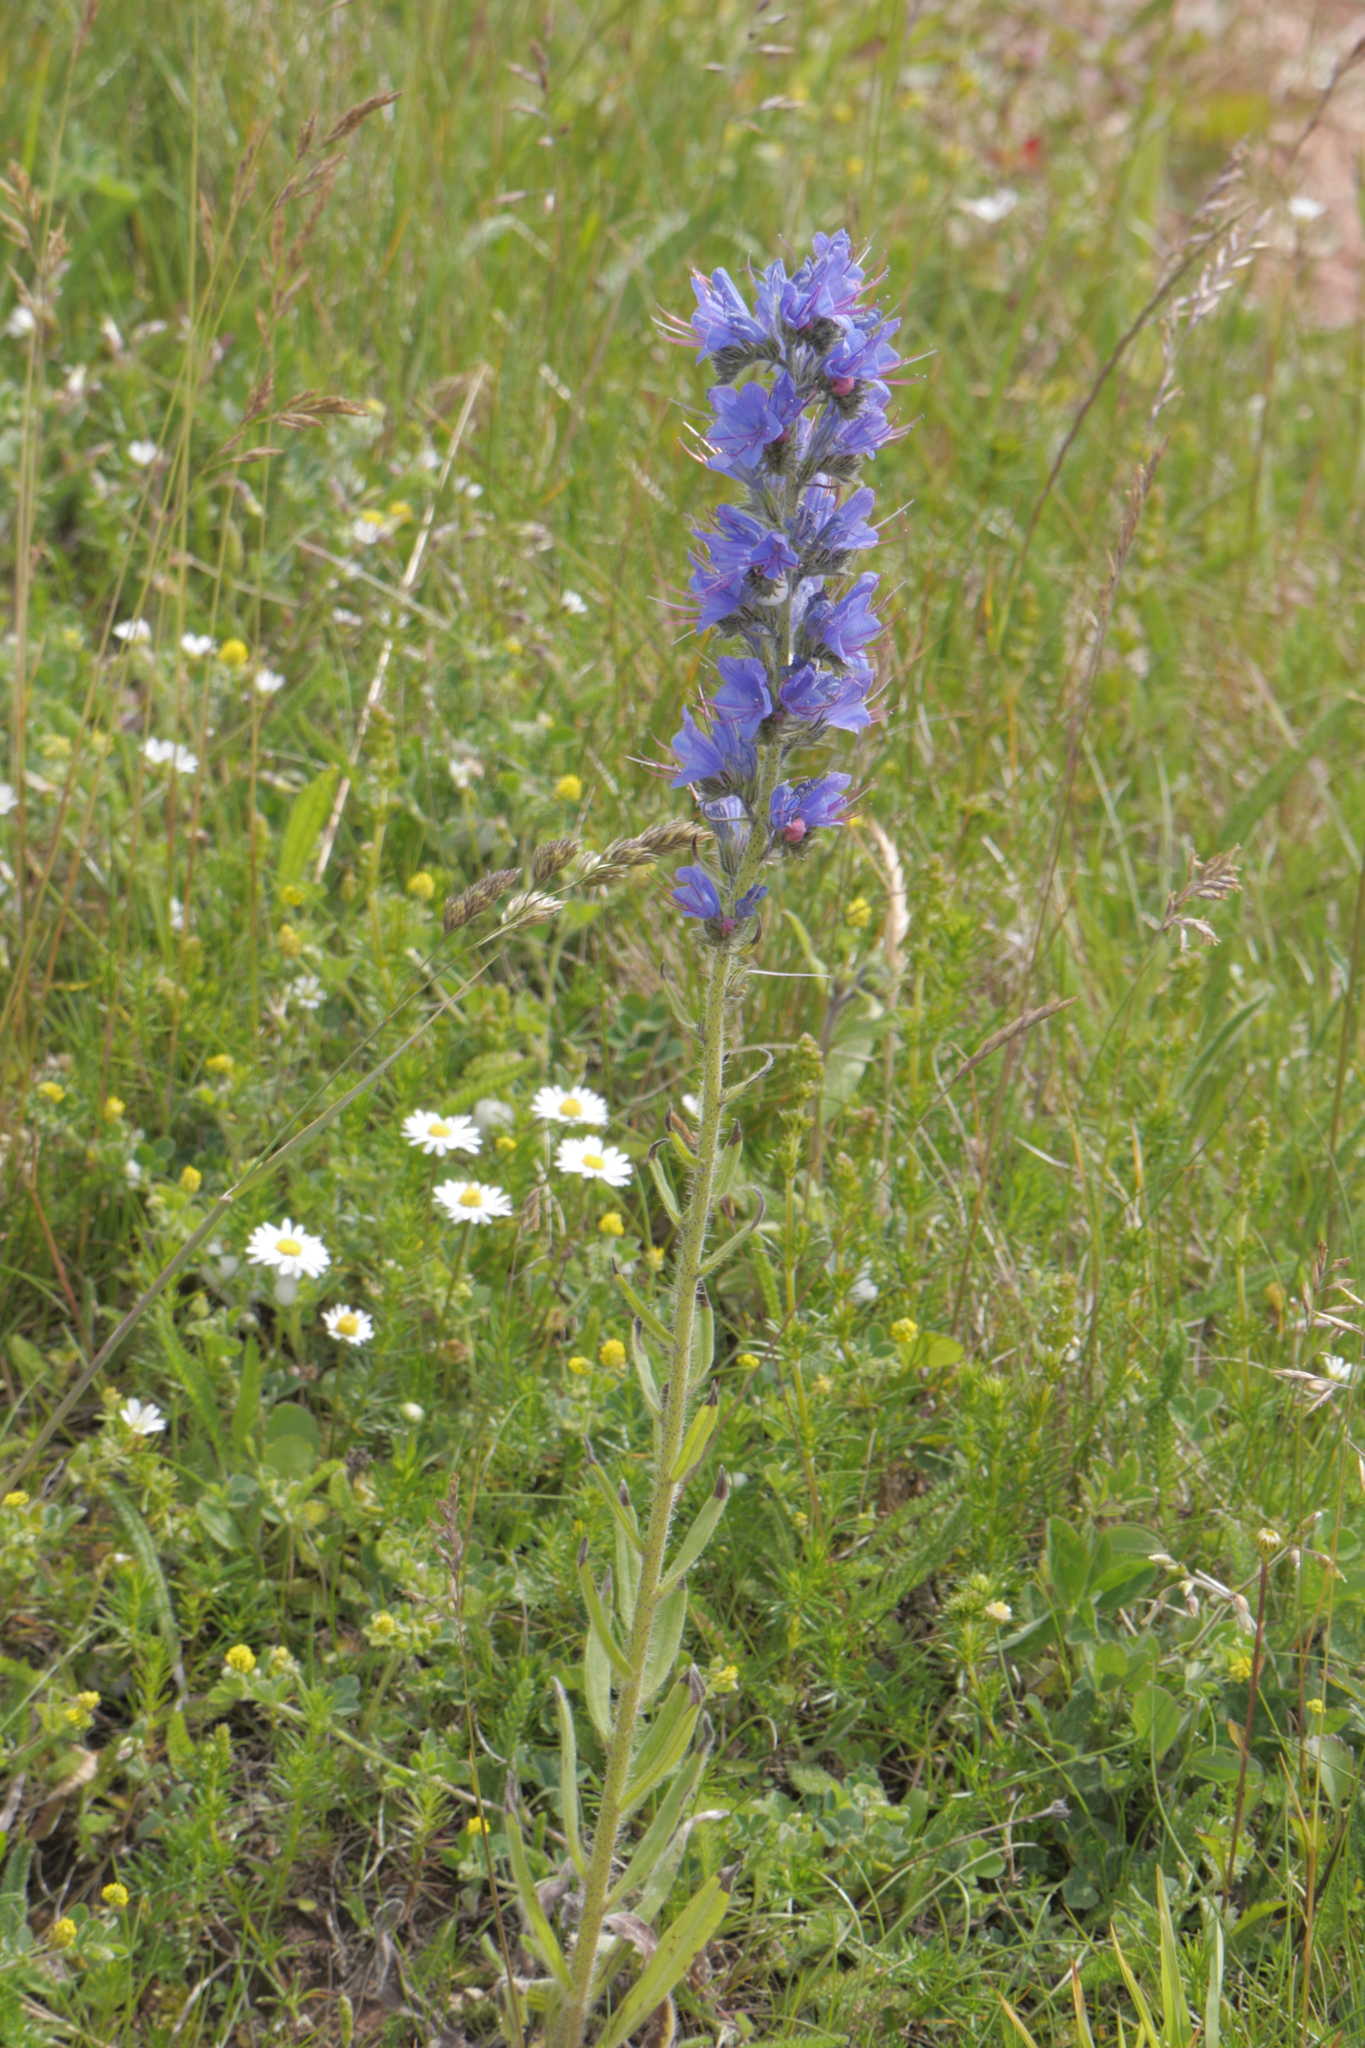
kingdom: Plantae
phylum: Tracheophyta
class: Magnoliopsida
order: Boraginales
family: Boraginaceae
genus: Echium
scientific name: Echium vulgare
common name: Common viper's bugloss
